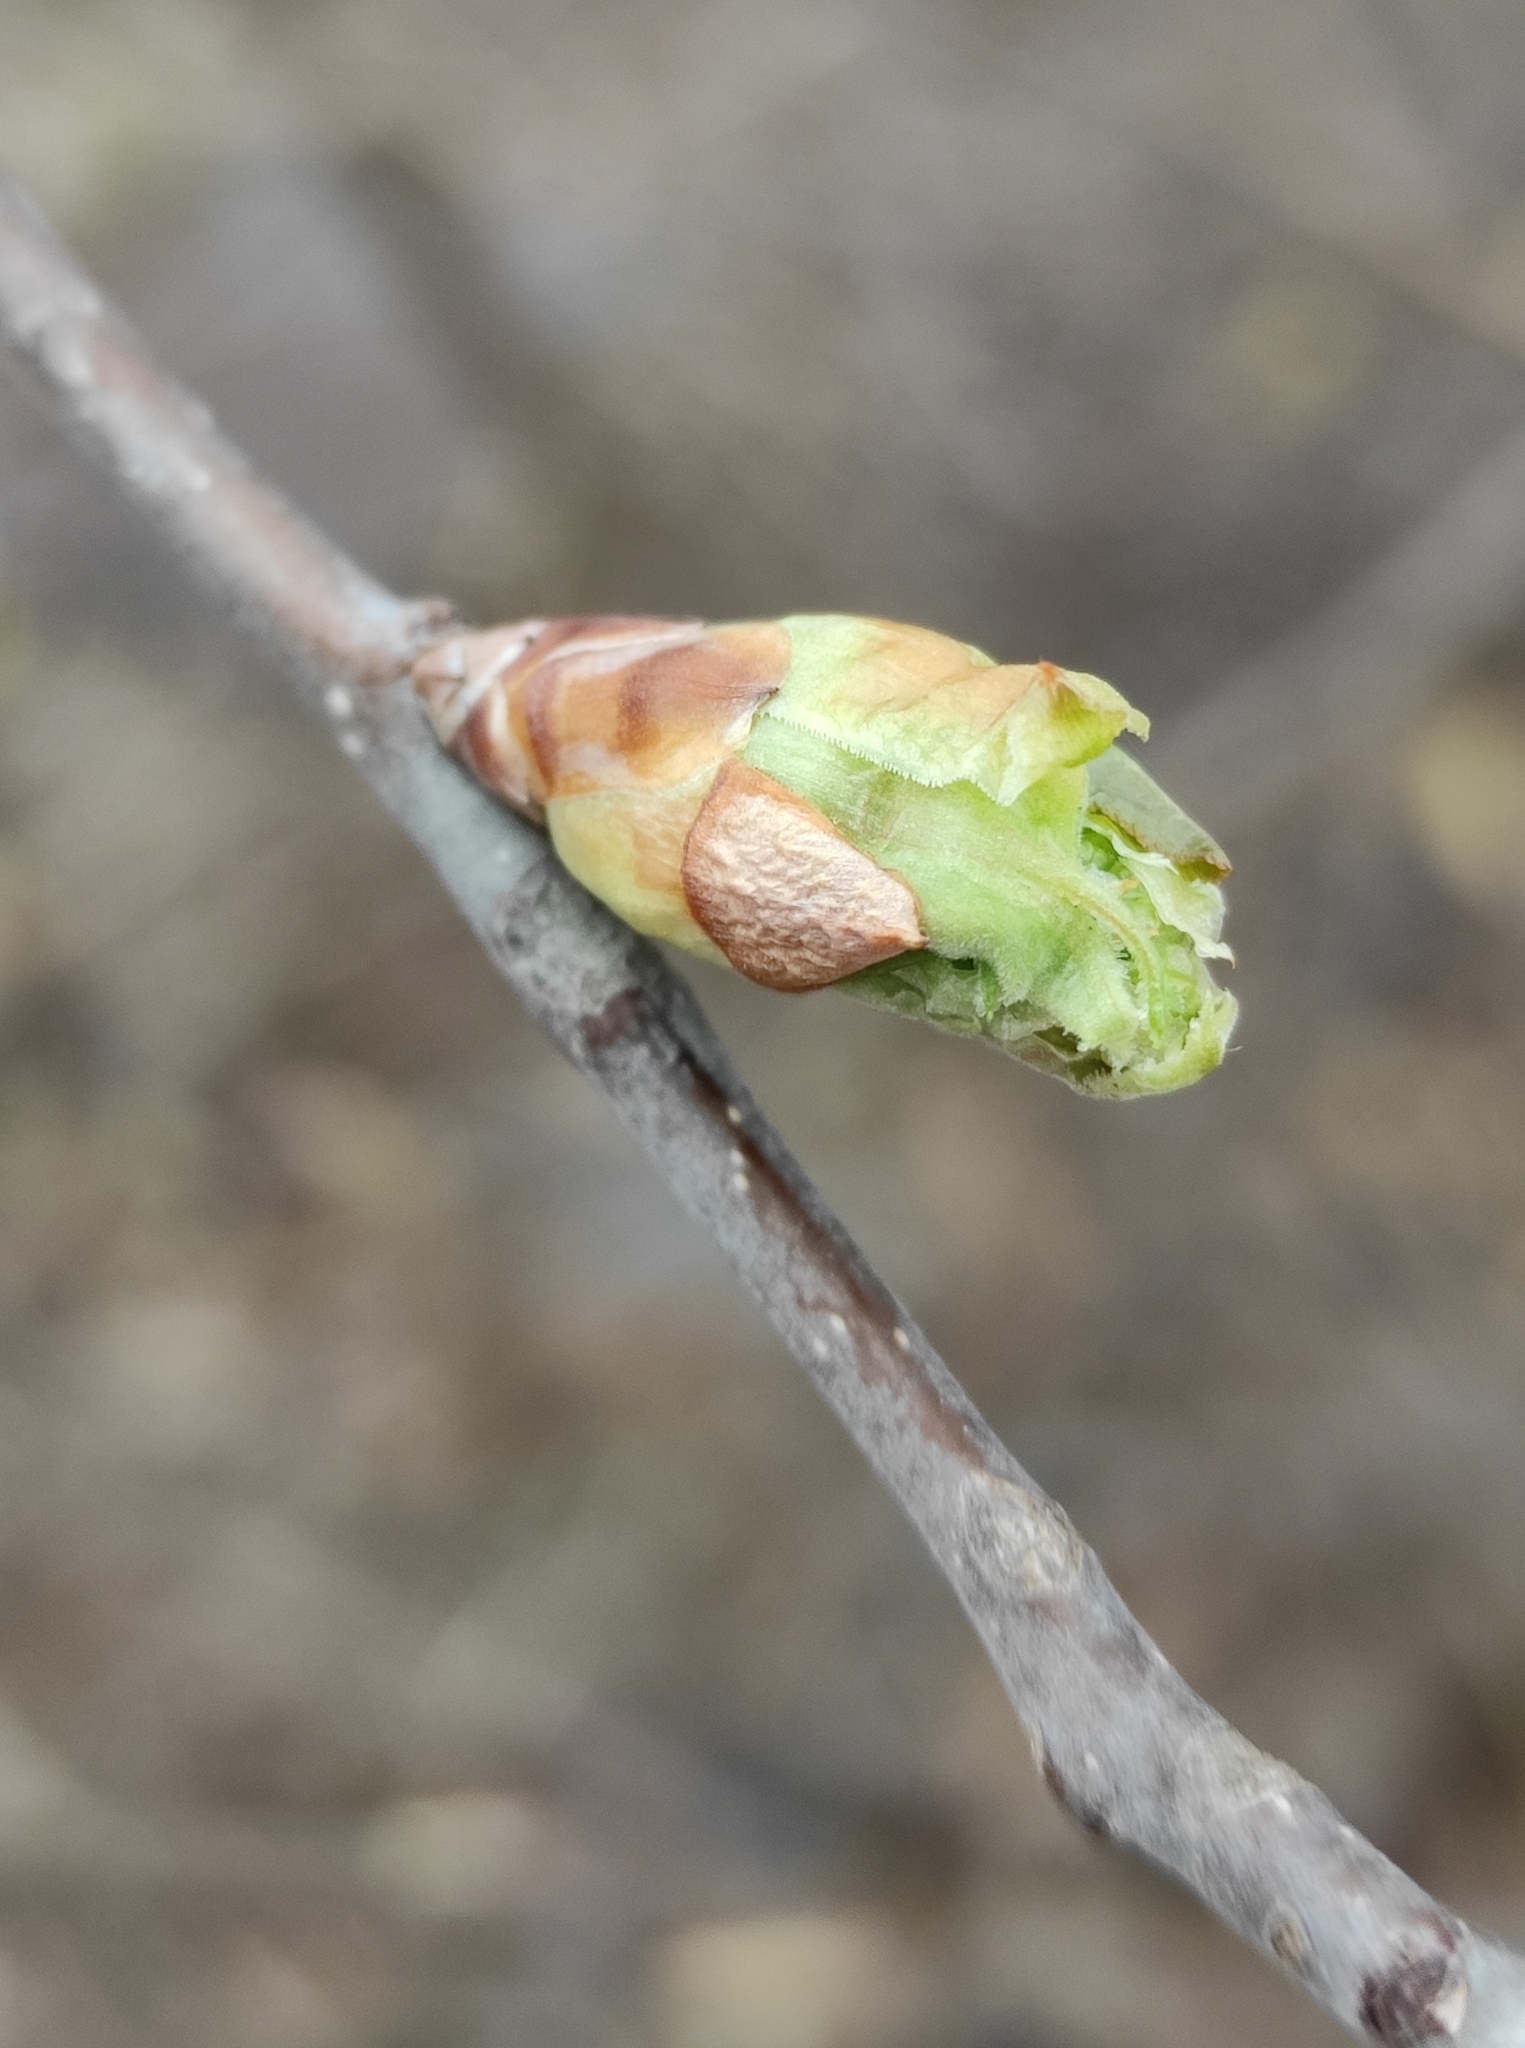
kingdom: Plantae
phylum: Tracheophyta
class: Magnoliopsida
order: Rosales
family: Rosaceae
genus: Prunus
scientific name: Prunus padus
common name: Bird cherry
